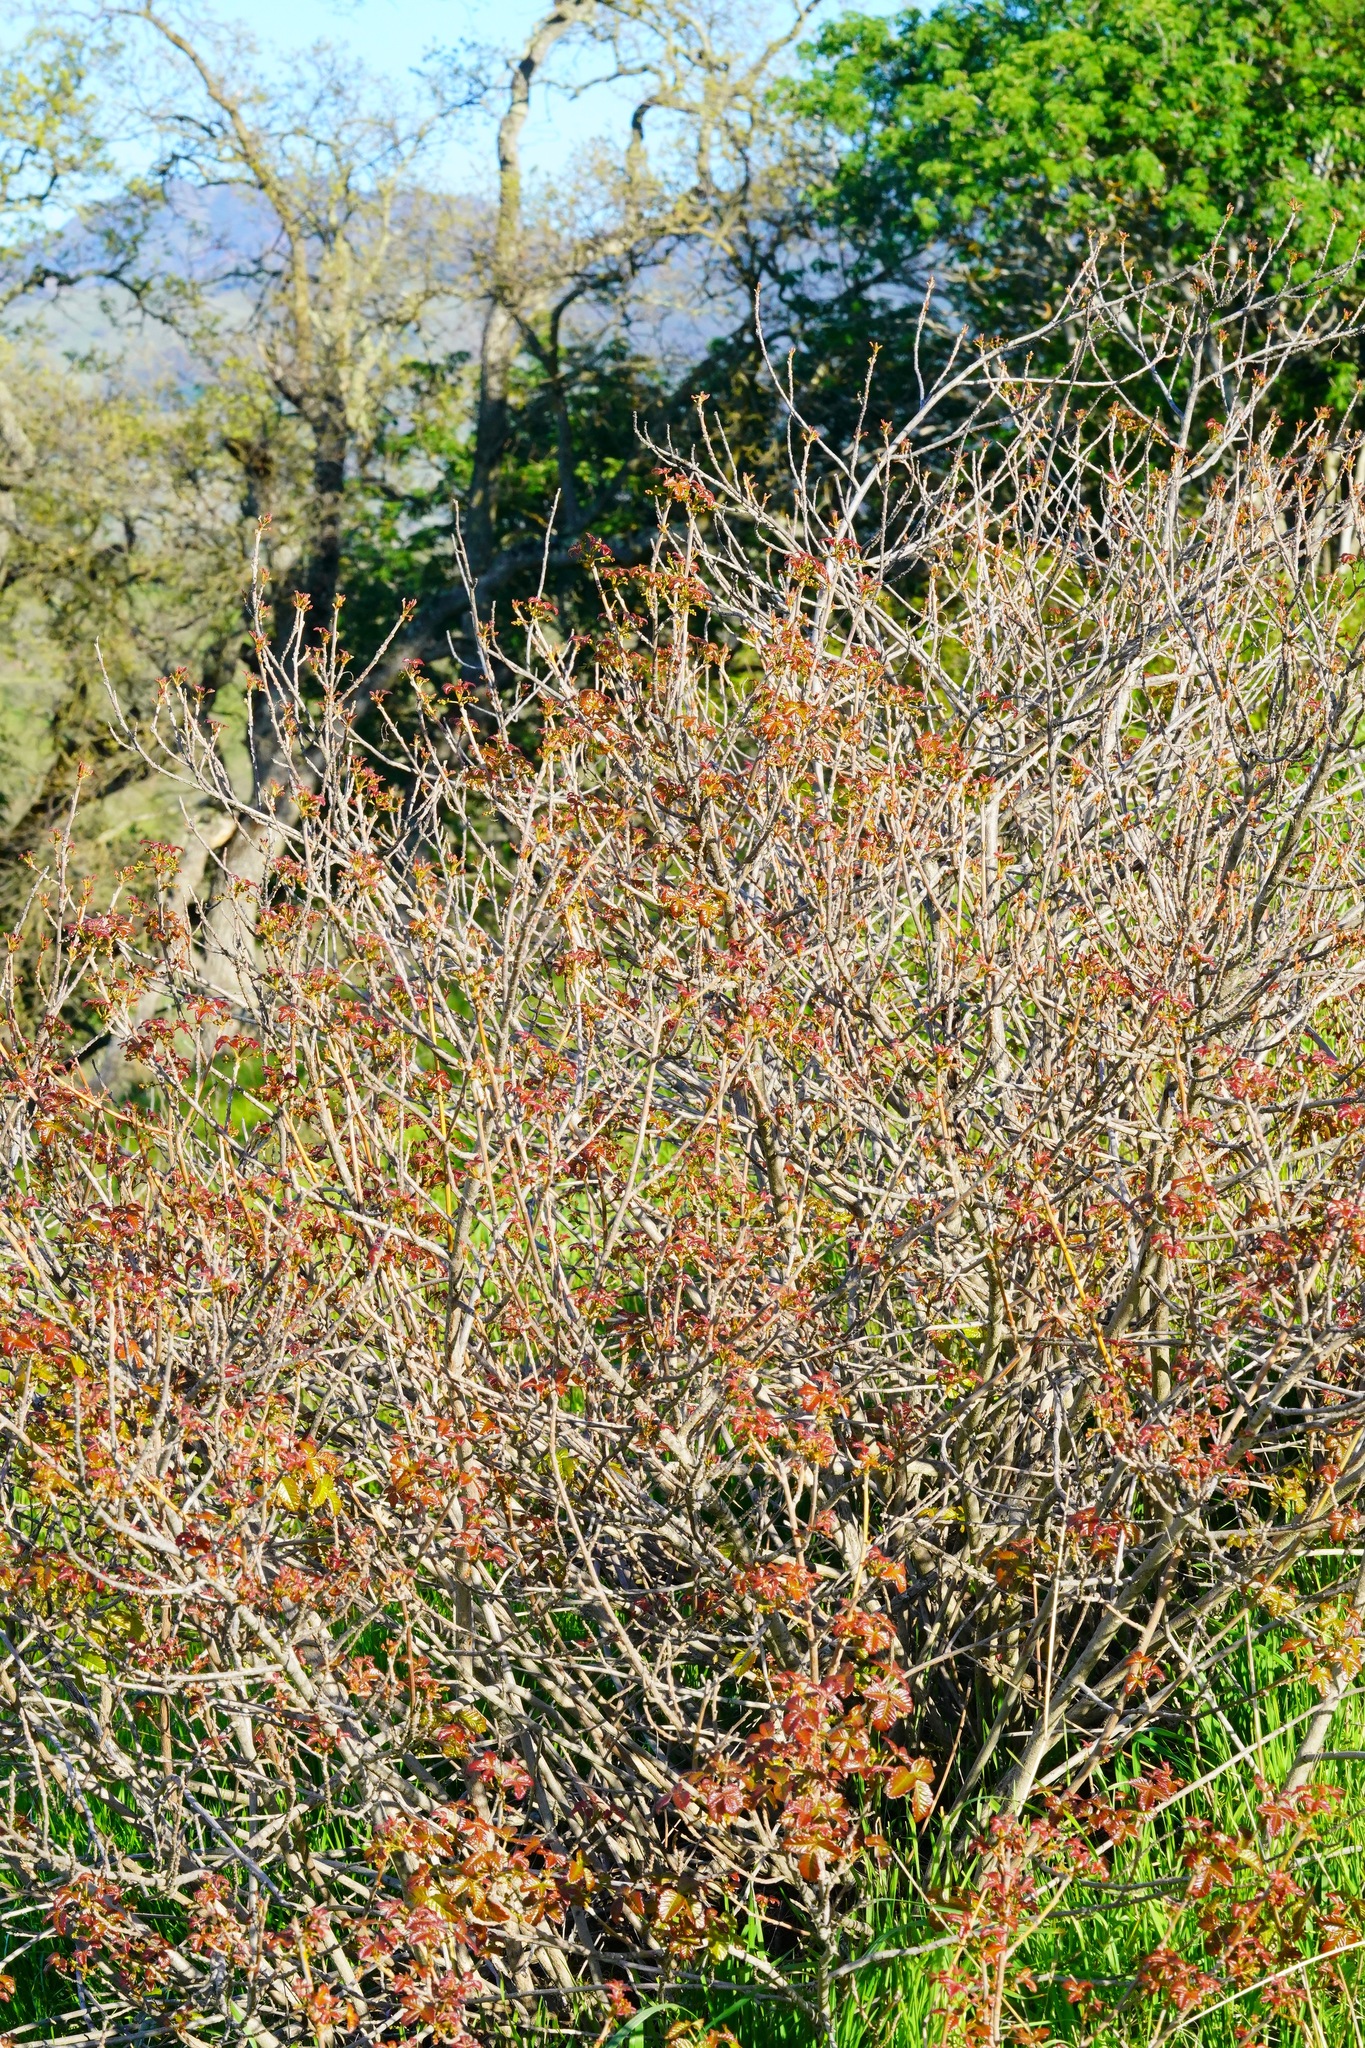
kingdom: Plantae
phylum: Tracheophyta
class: Magnoliopsida
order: Sapindales
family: Anacardiaceae
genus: Toxicodendron
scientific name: Toxicodendron diversilobum
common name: Pacific poison-oak
